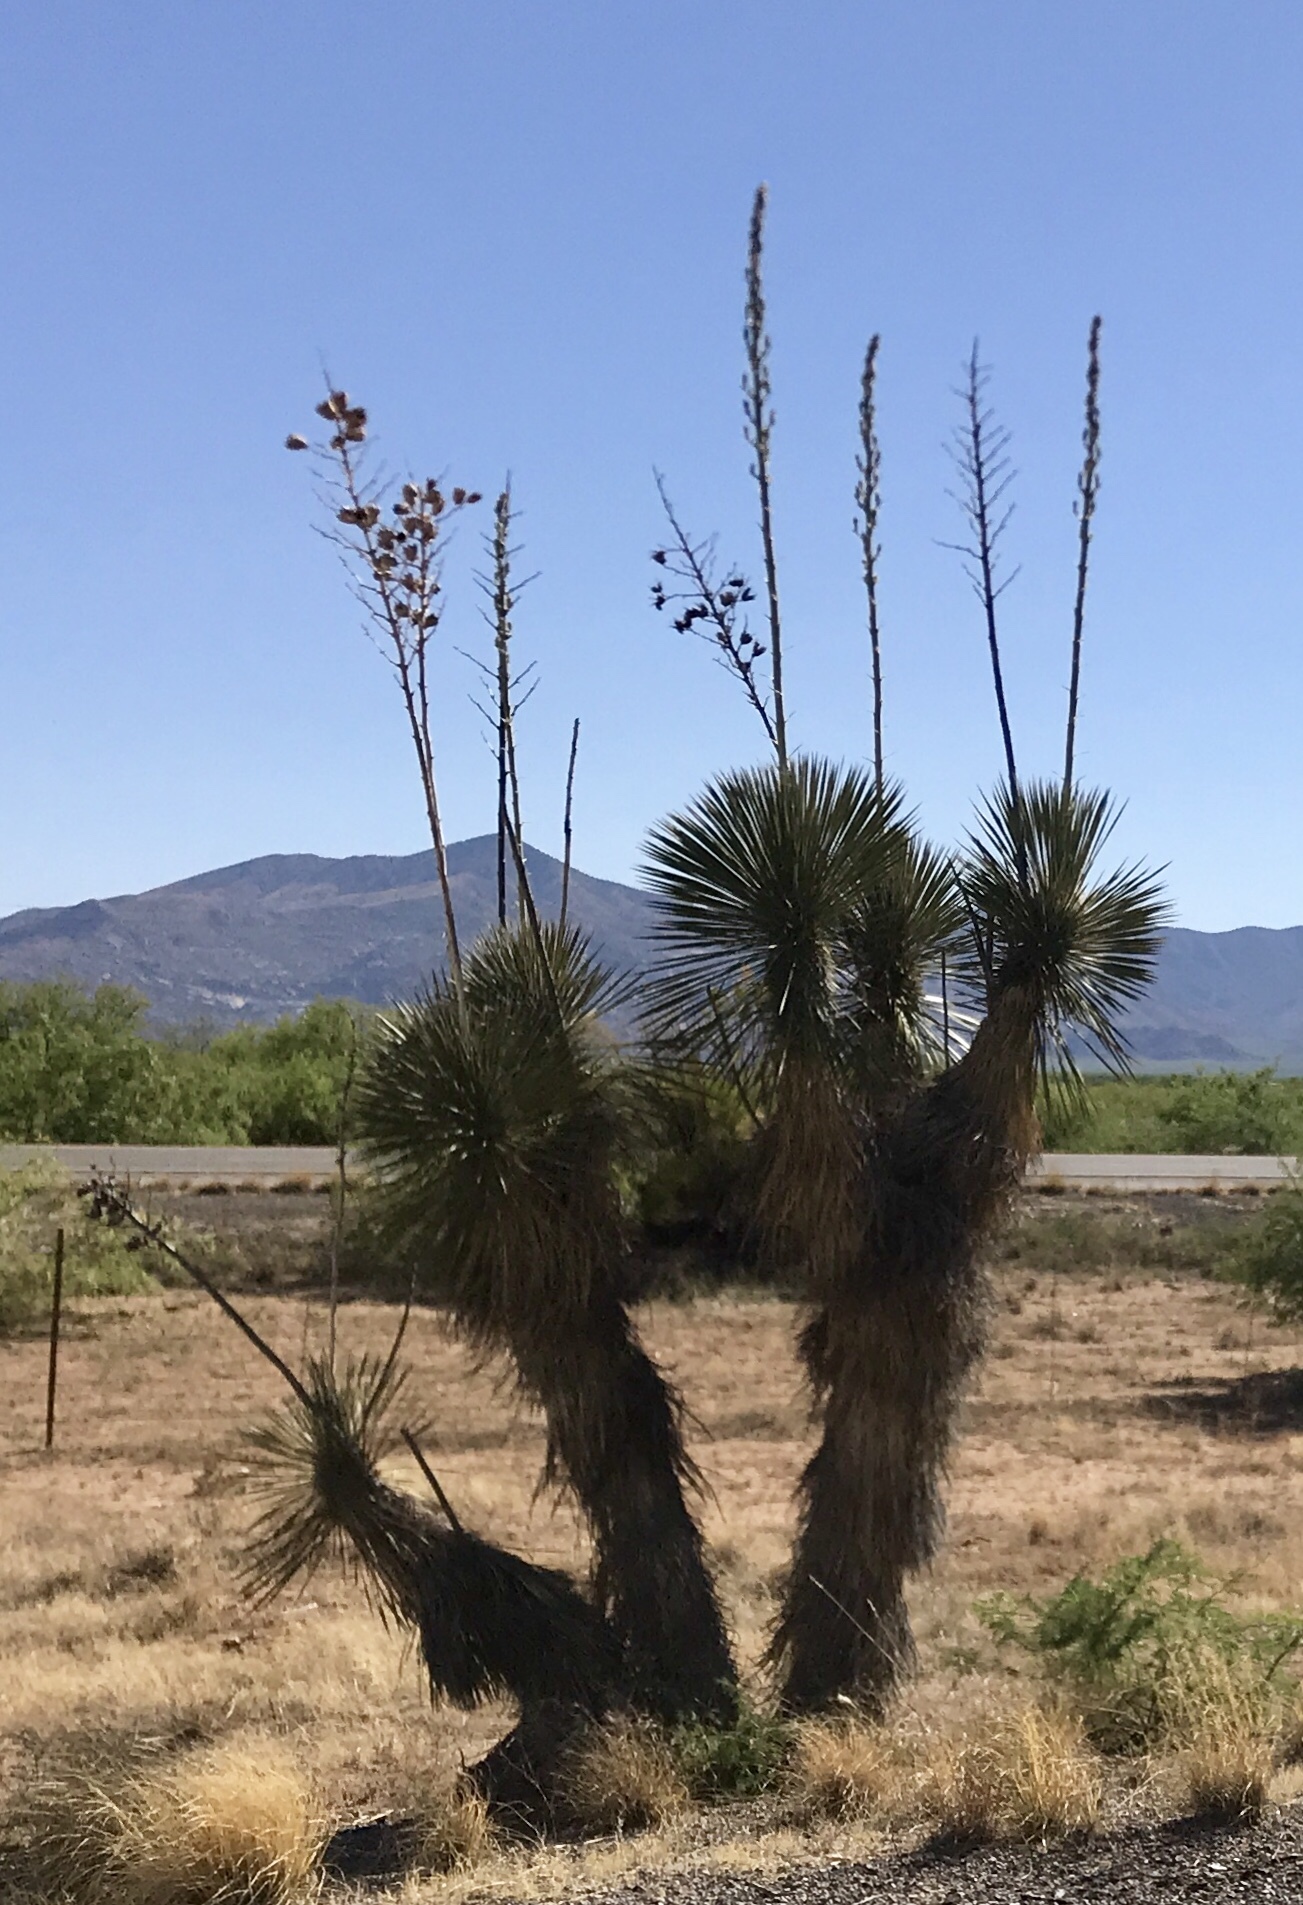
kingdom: Plantae
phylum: Tracheophyta
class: Liliopsida
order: Asparagales
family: Asparagaceae
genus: Yucca
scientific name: Yucca elata
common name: Palmella
